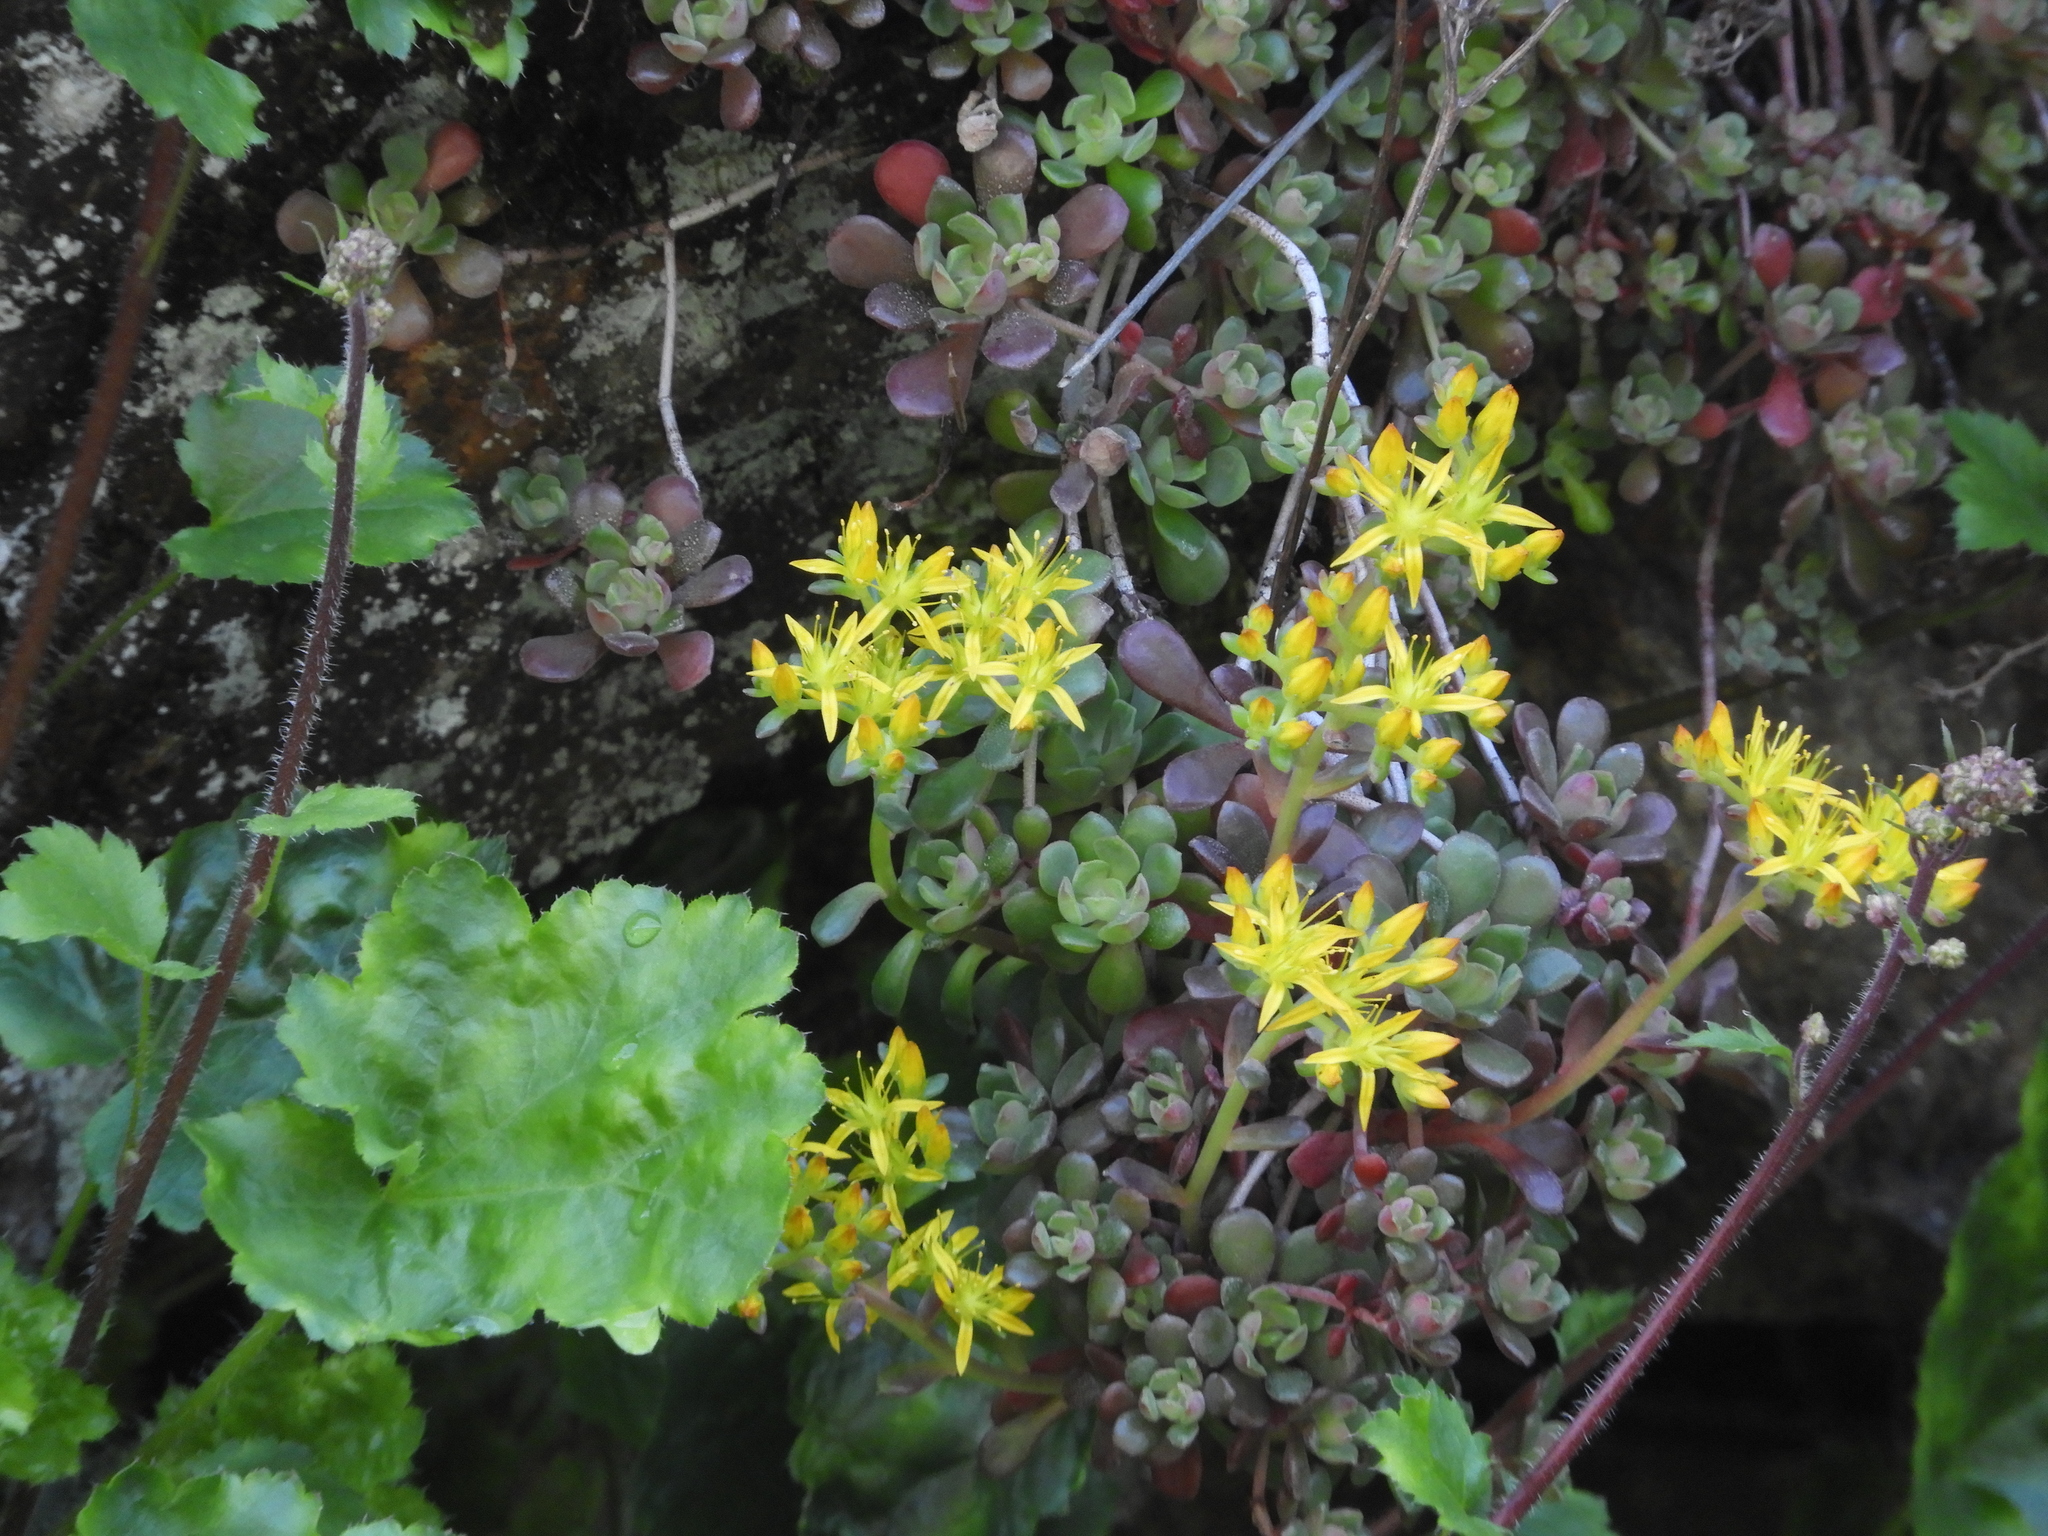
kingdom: Plantae
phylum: Tracheophyta
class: Magnoliopsida
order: Saxifragales
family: Crassulaceae
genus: Sedum
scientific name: Sedum spathulifolium
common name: Colorado stonecrop
